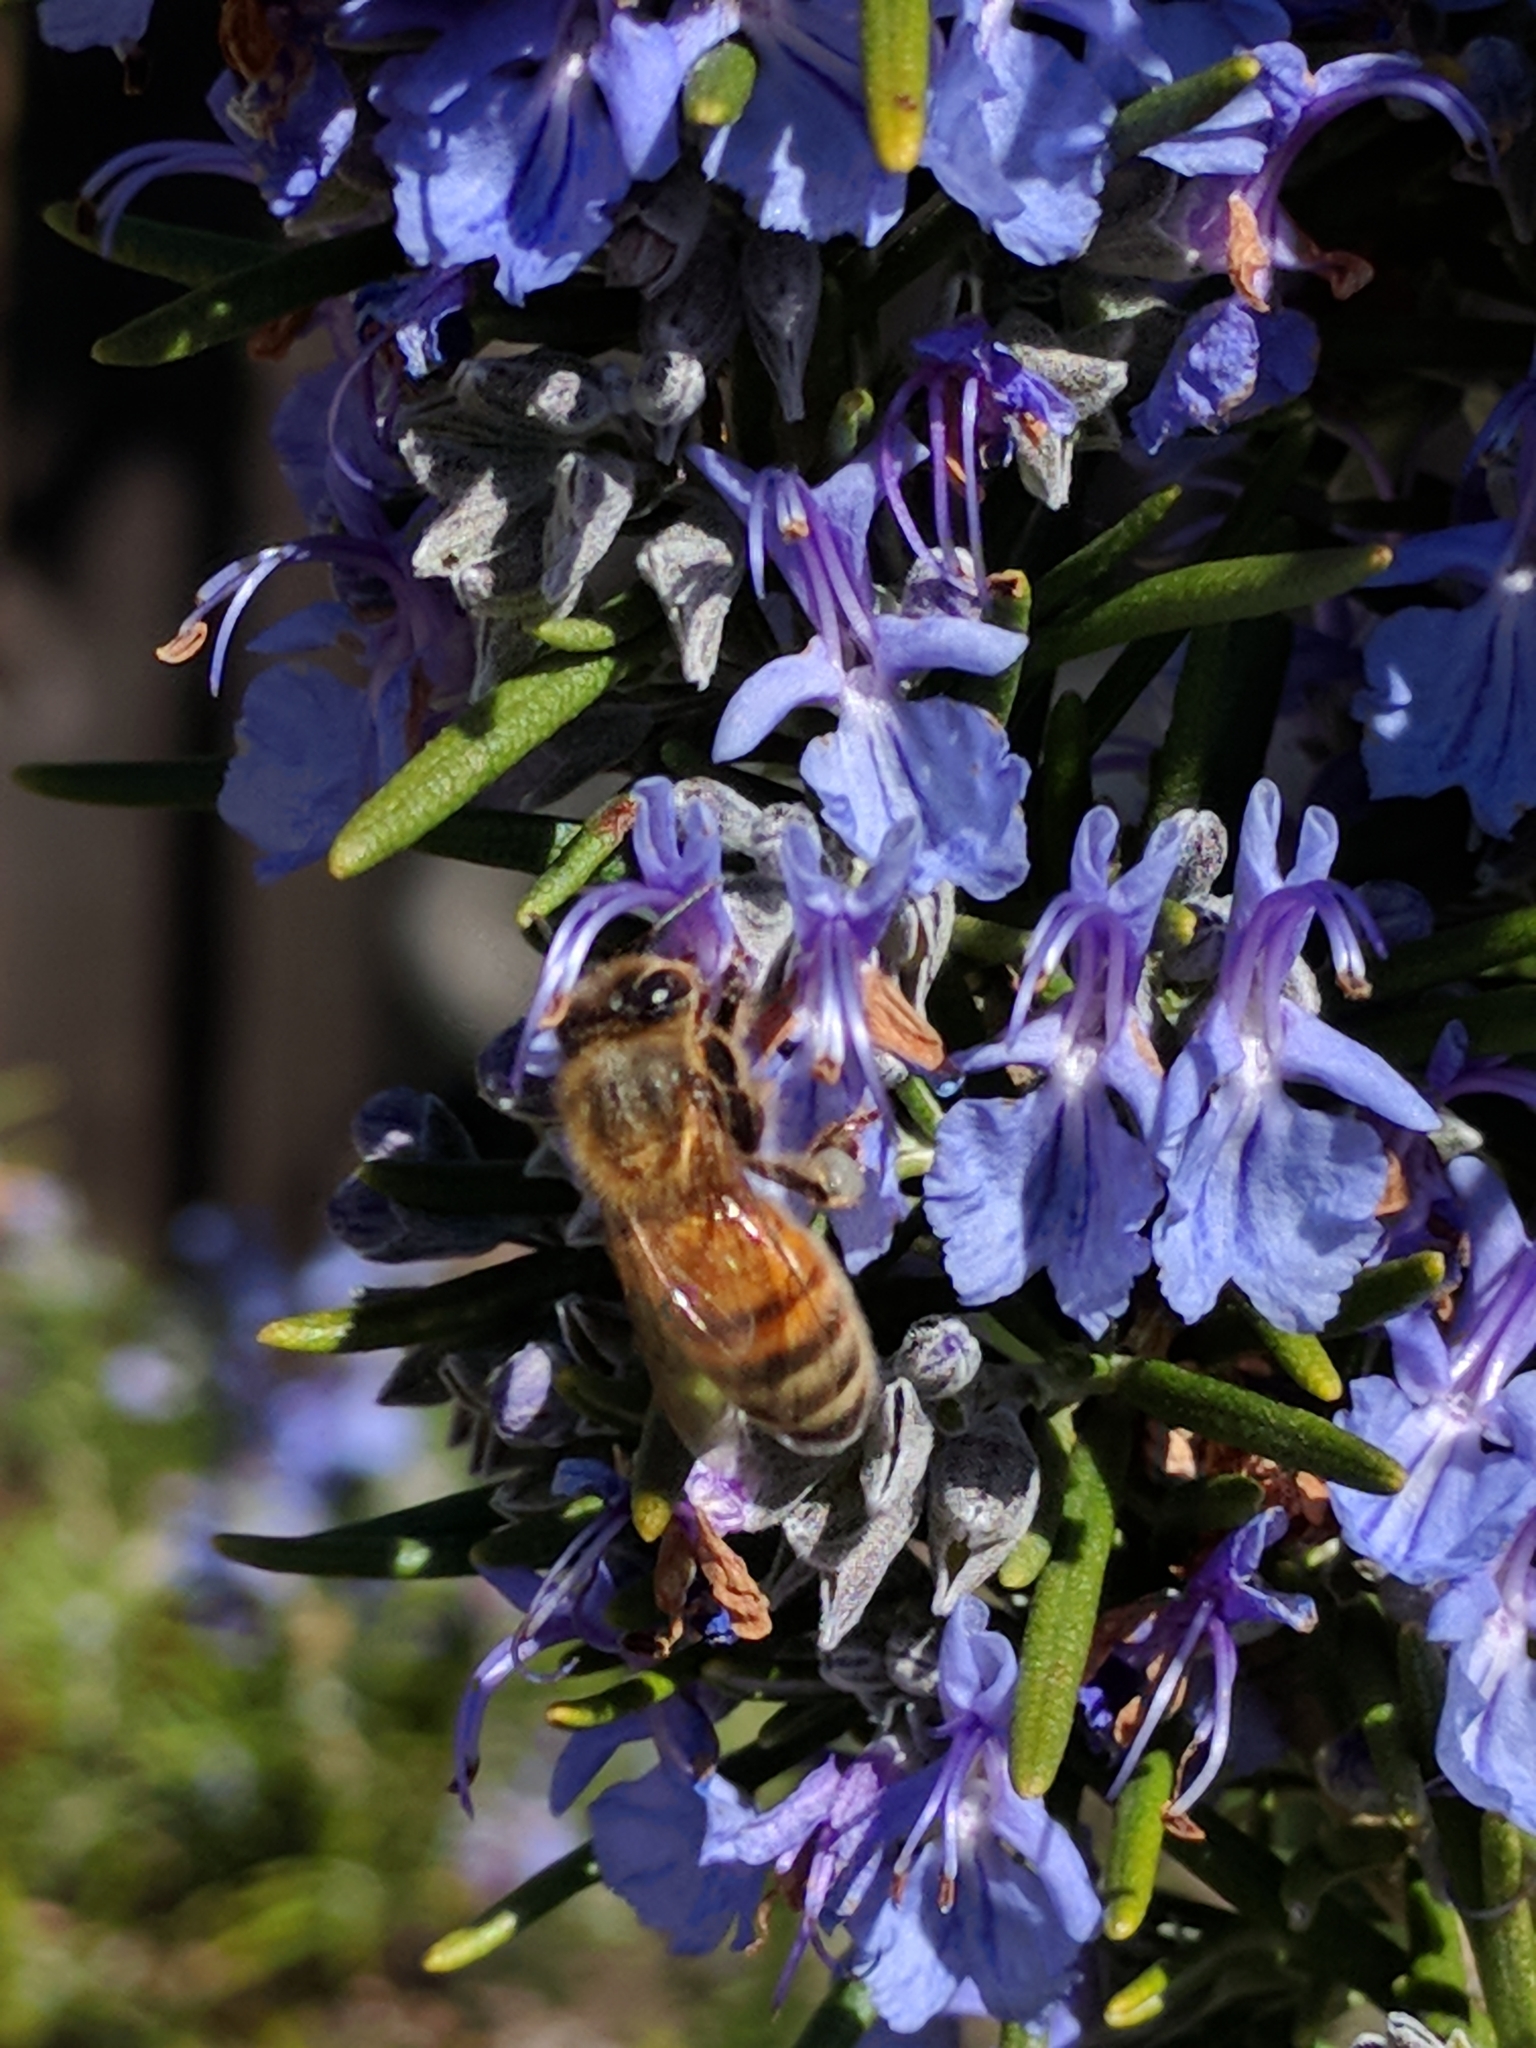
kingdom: Animalia
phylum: Arthropoda
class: Insecta
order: Hymenoptera
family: Apidae
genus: Apis
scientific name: Apis mellifera
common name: Honey bee
